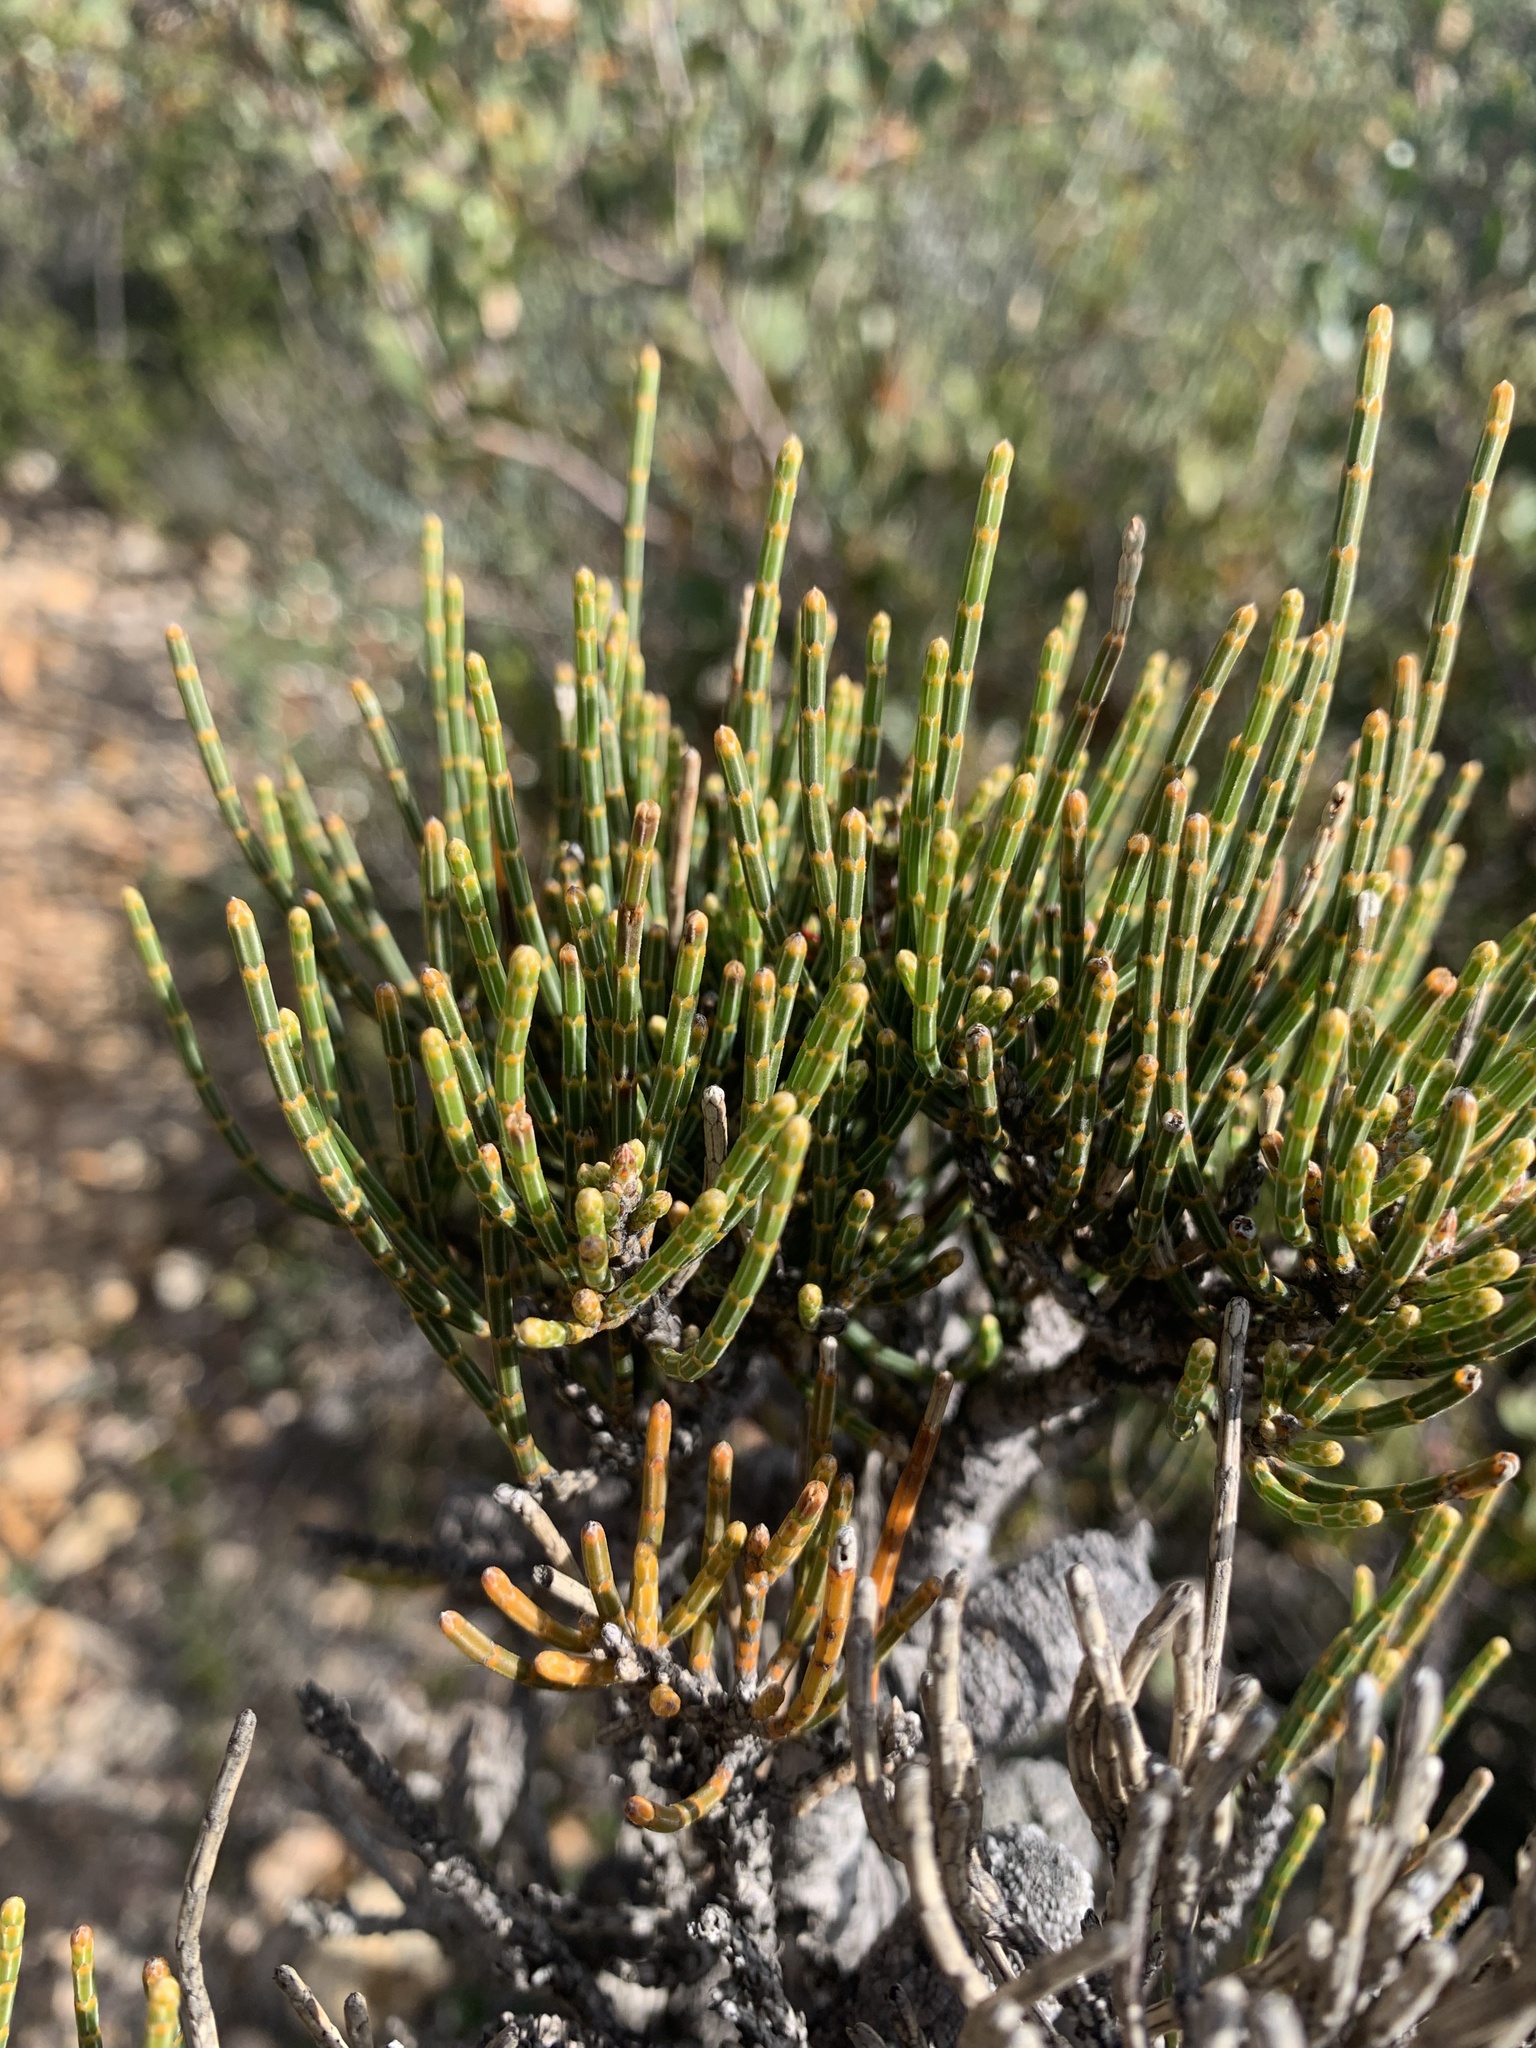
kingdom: Plantae
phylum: Tracheophyta
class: Magnoliopsida
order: Fagales
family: Casuarinaceae
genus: Allocasuarina
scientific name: Allocasuarina humilis
